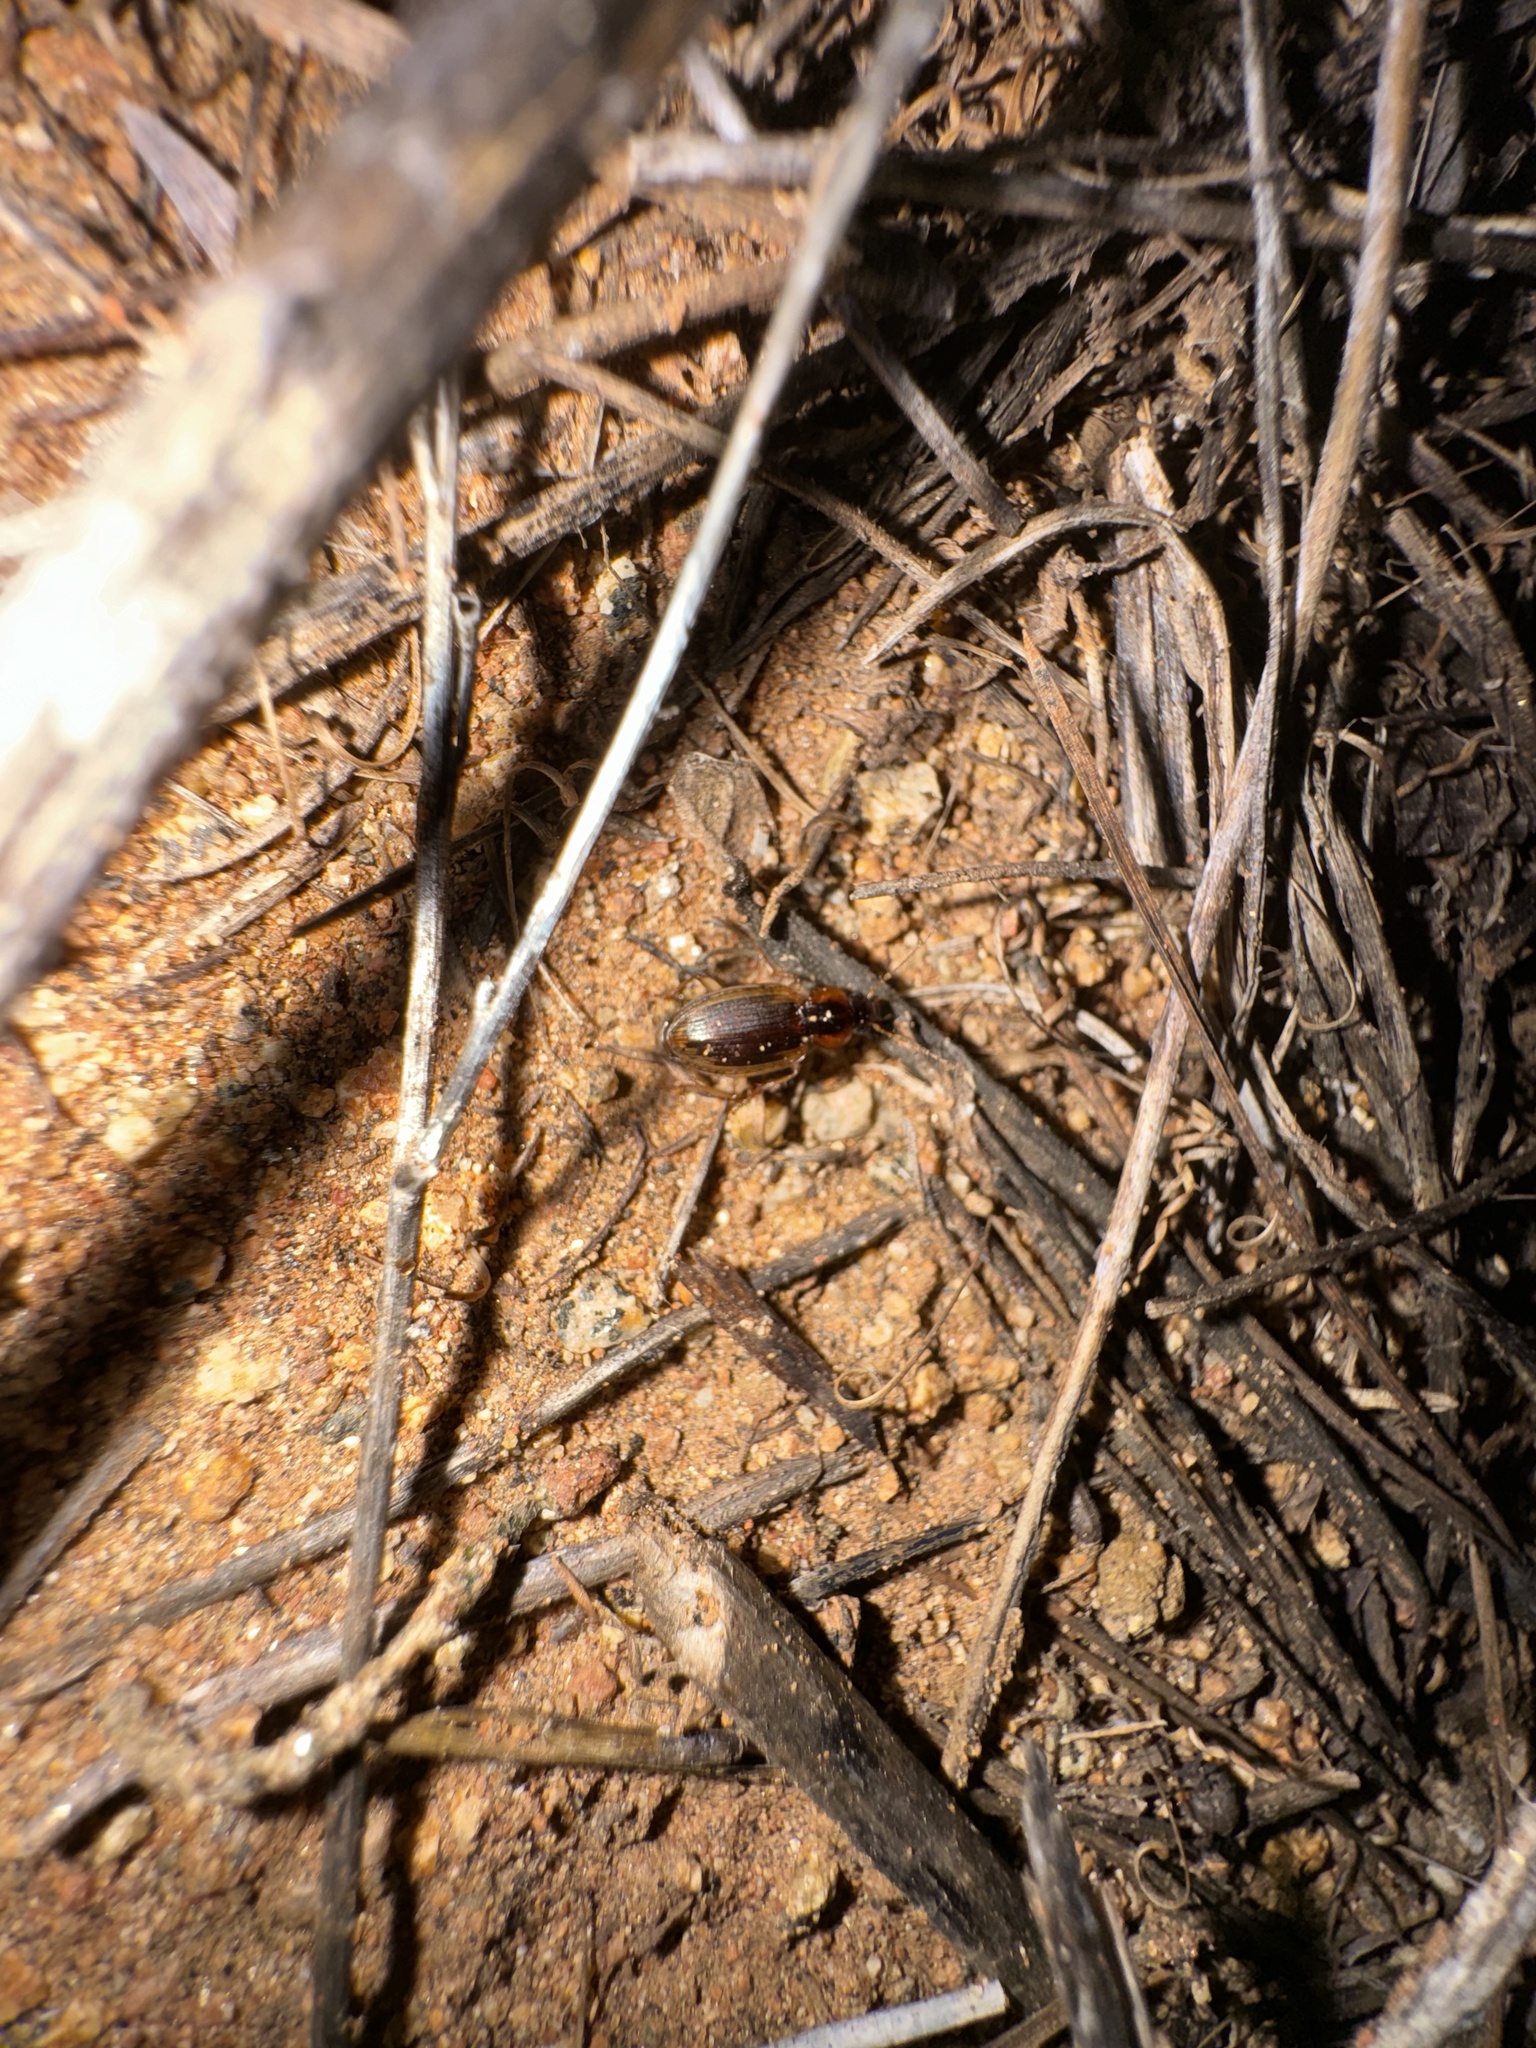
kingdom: Animalia
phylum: Arthropoda
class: Insecta
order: Coleoptera
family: Carabidae
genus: Tanystoma
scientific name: Tanystoma maculicolle
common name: Tule beetle
